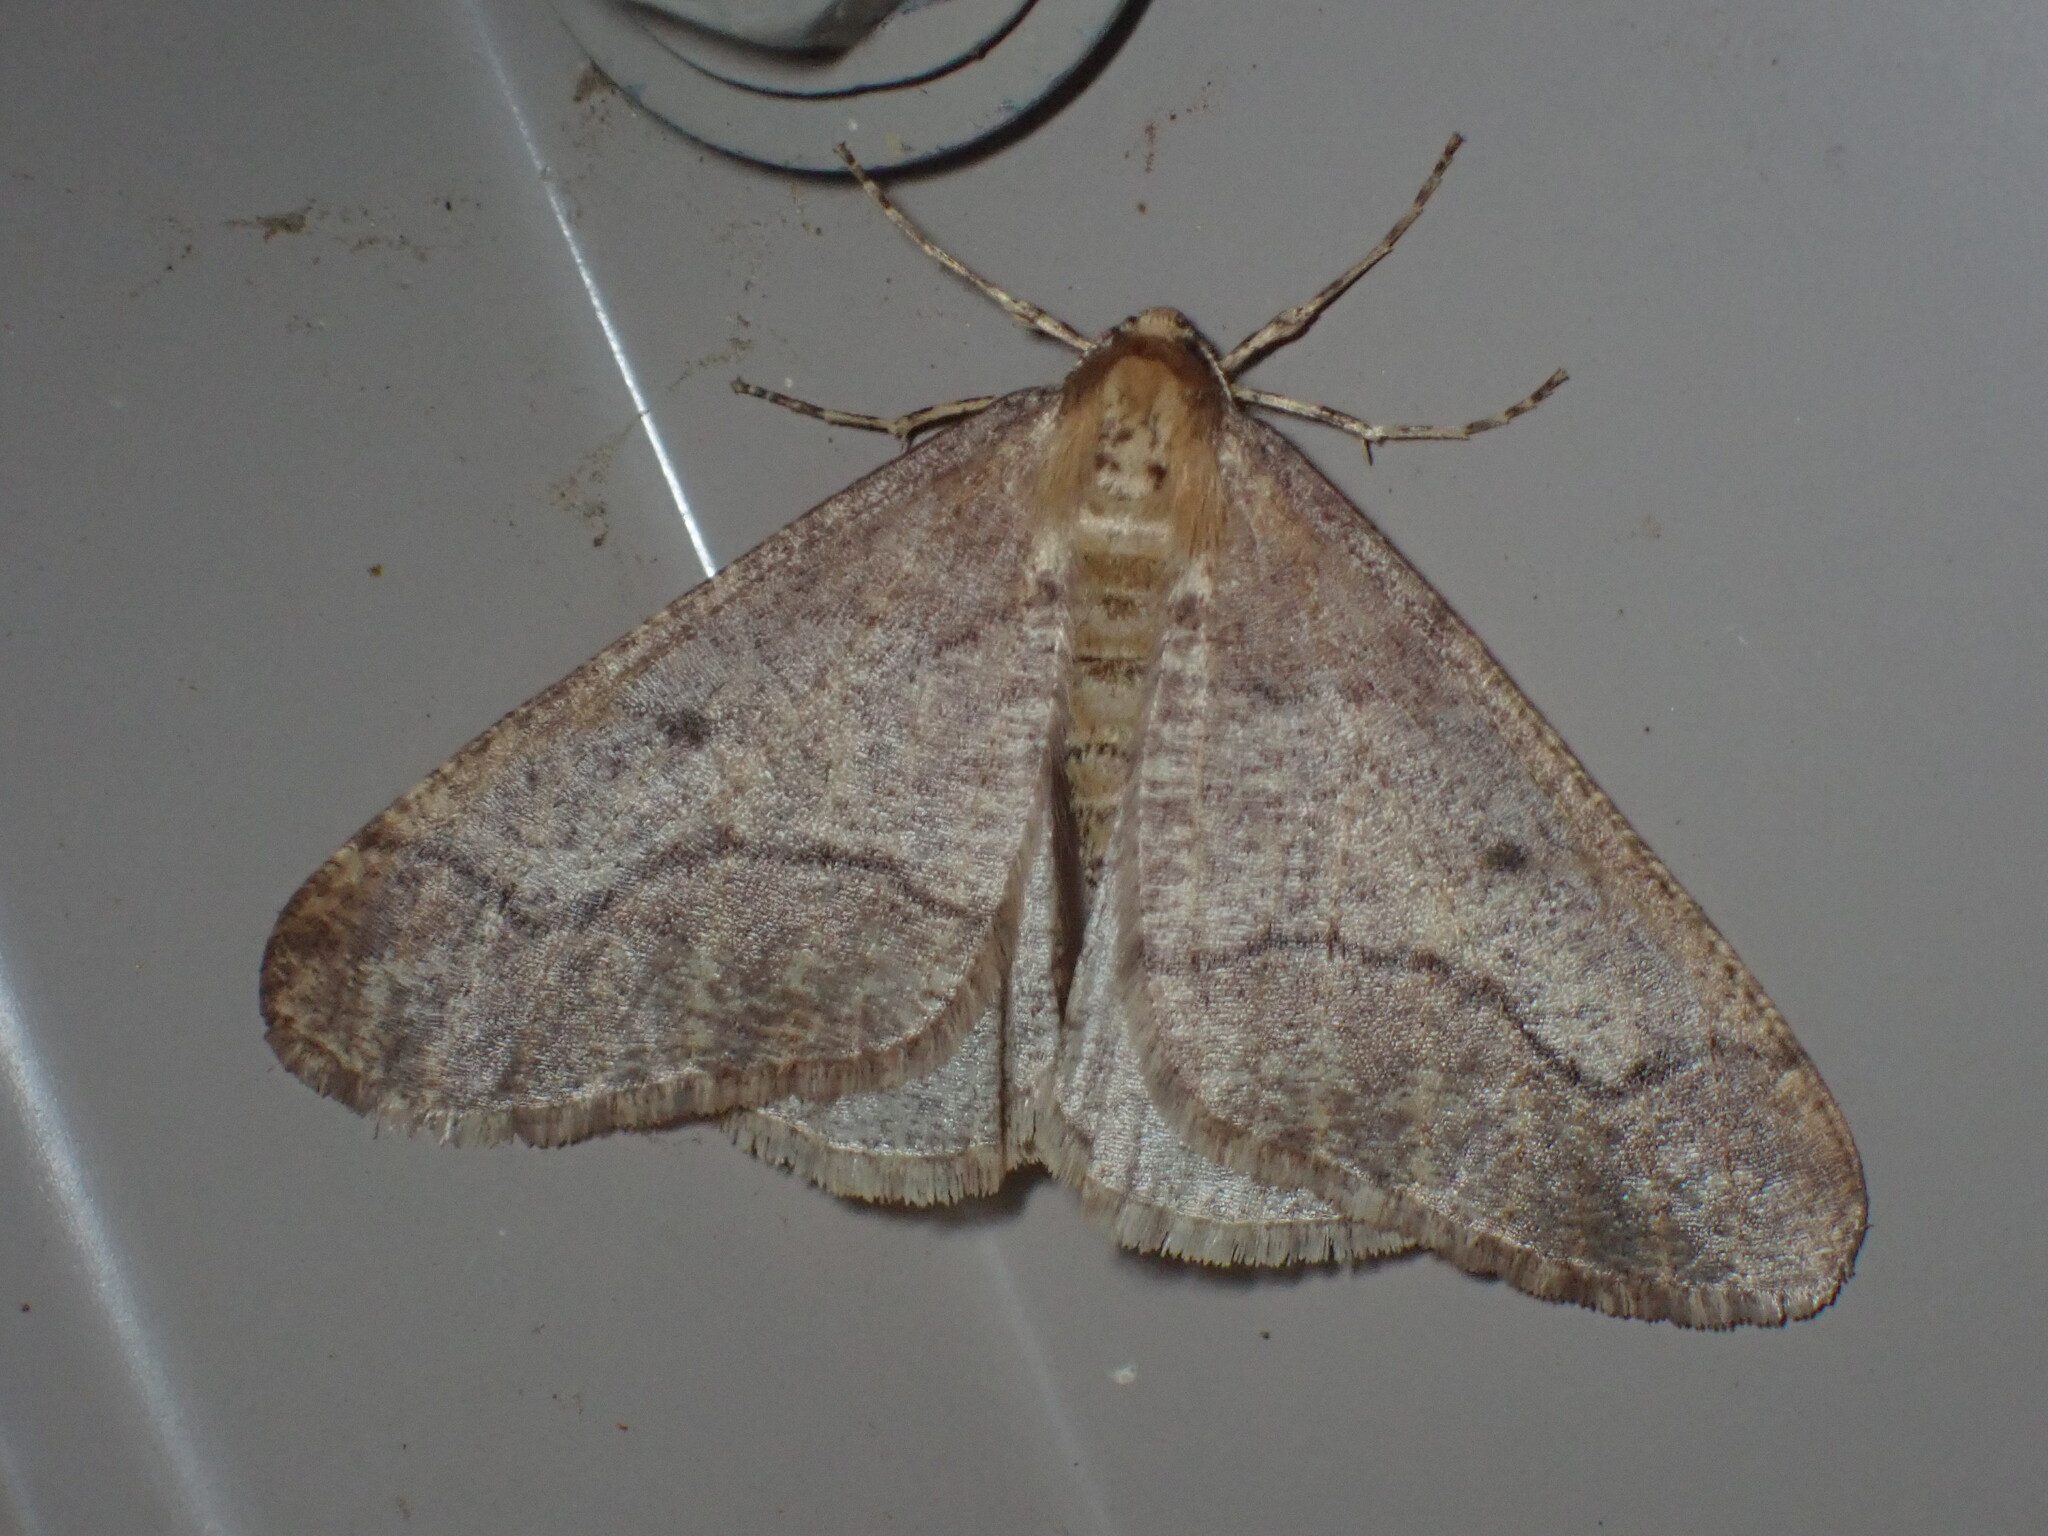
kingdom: Animalia
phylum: Arthropoda
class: Insecta
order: Lepidoptera
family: Geometridae
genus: Erannis
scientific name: Erannis tiliaria
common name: Linden looper
